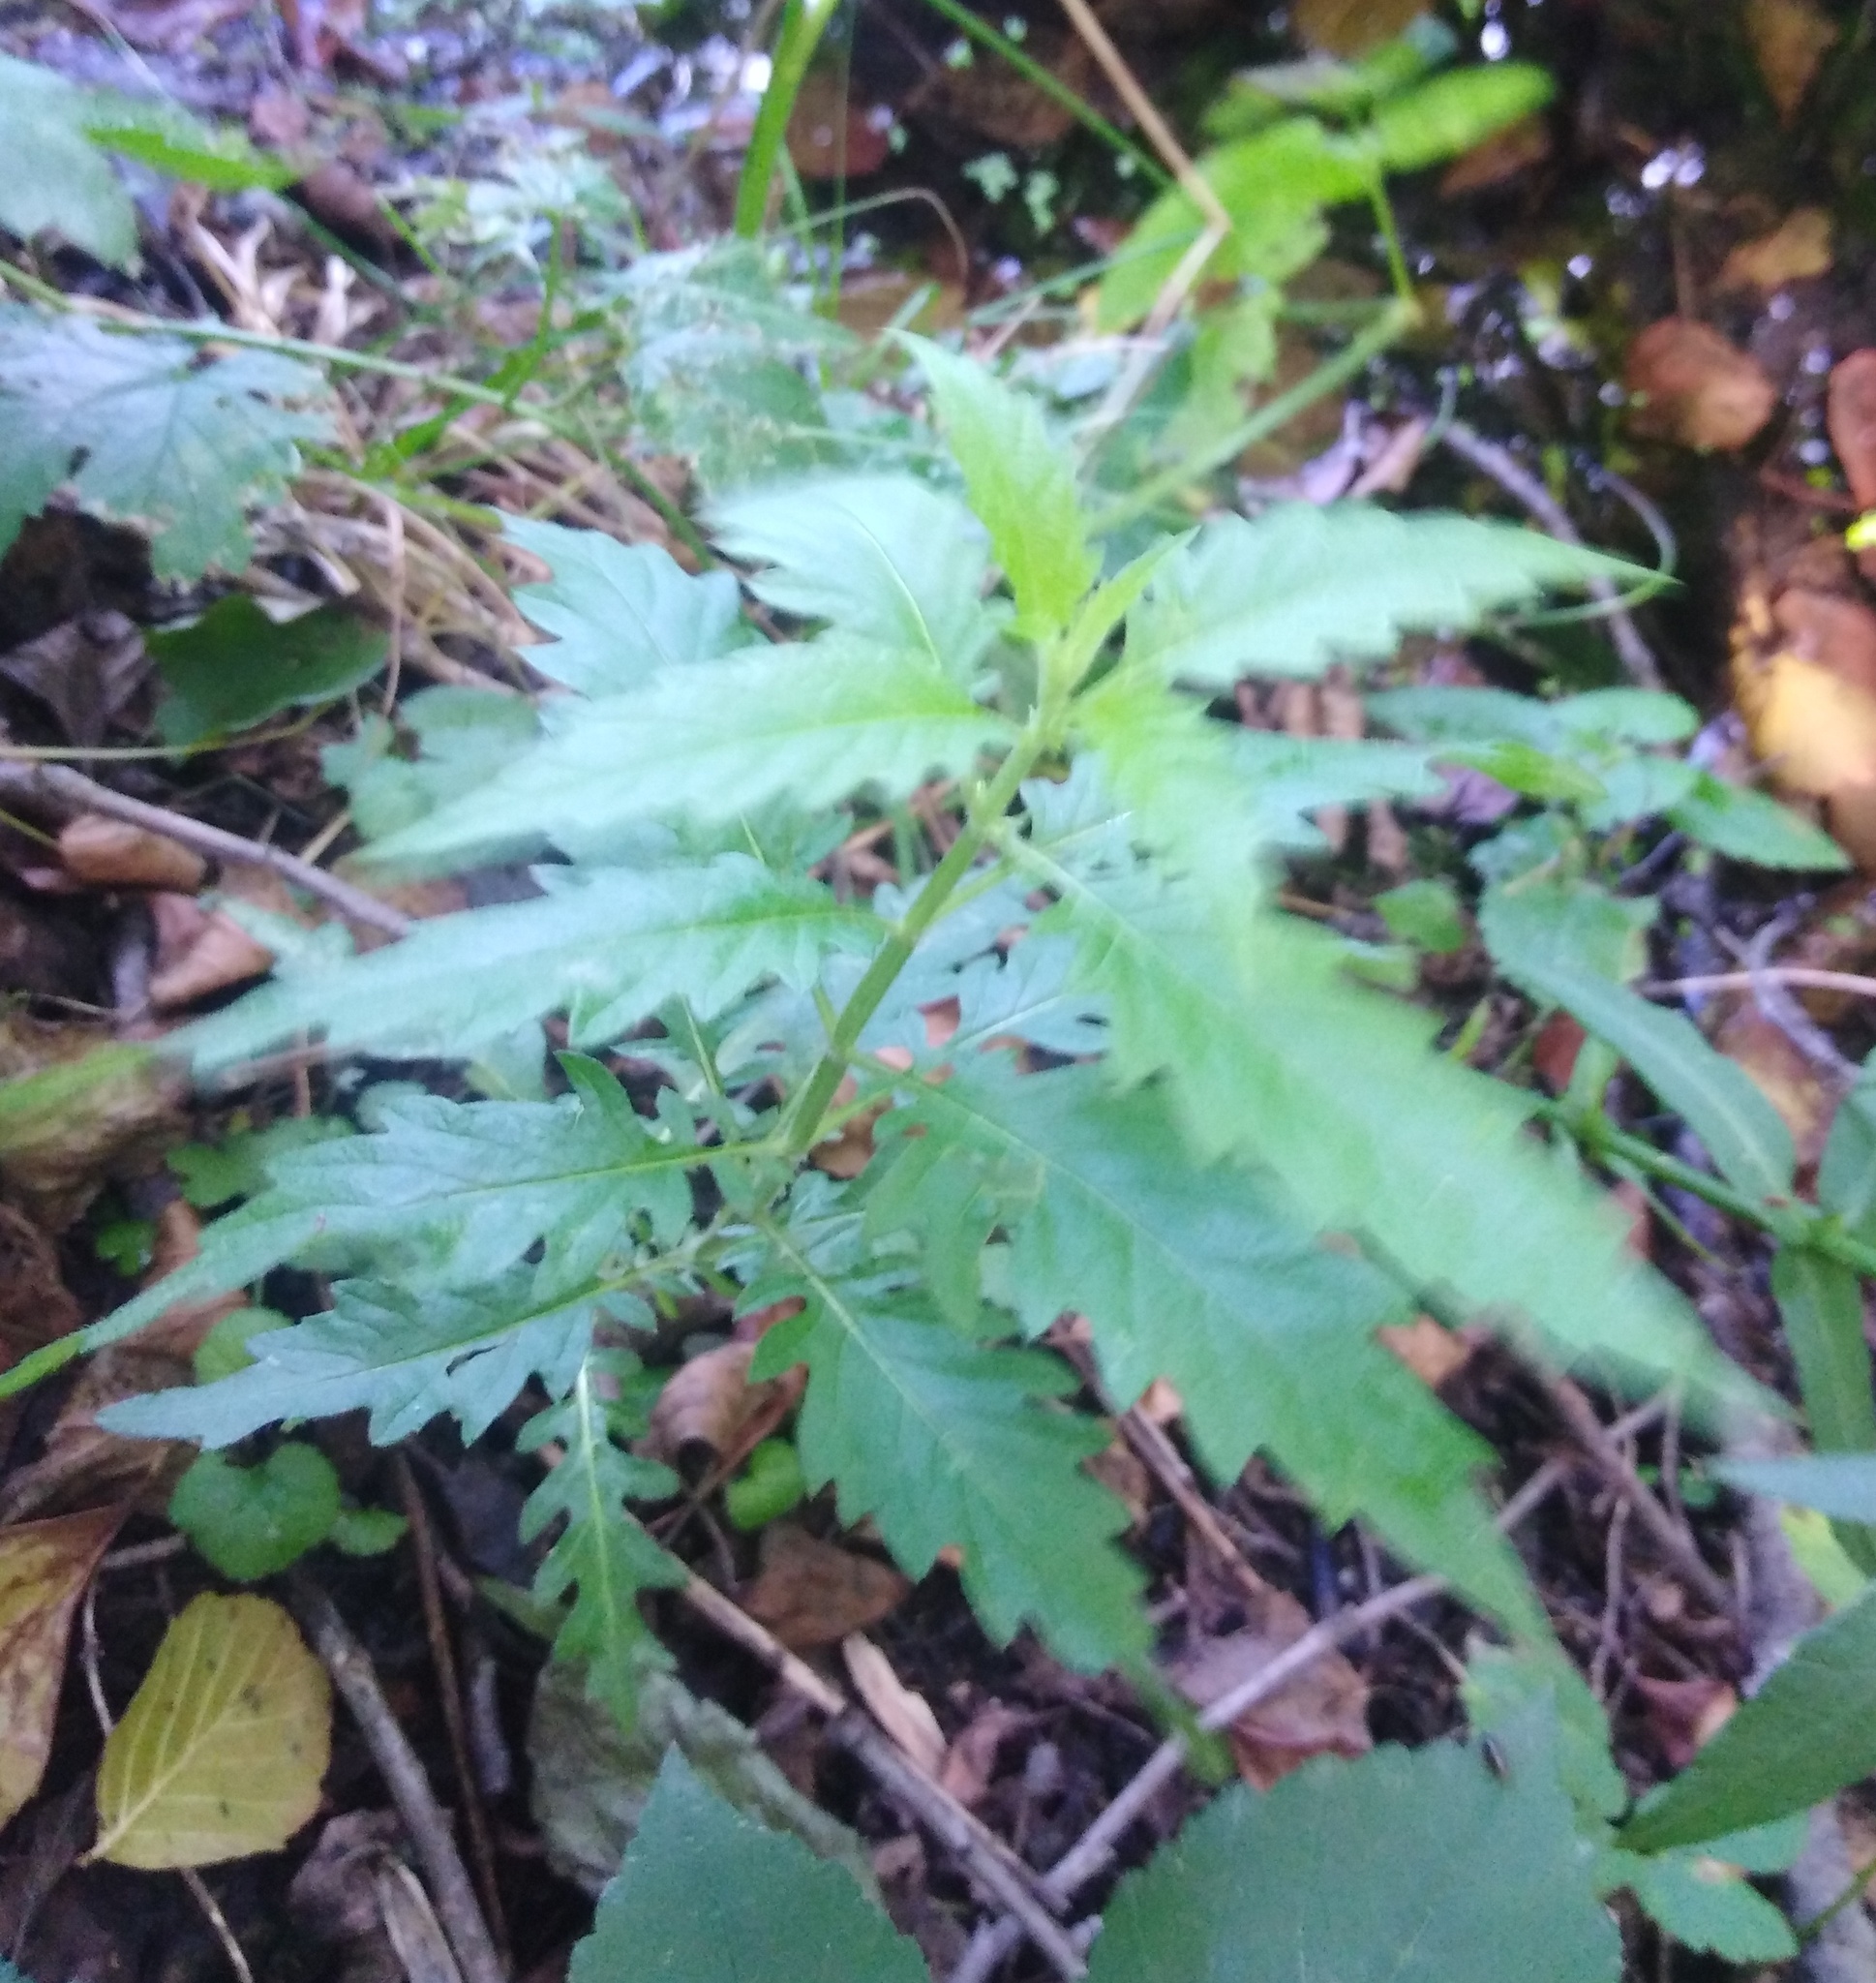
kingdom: Plantae
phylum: Tracheophyta
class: Magnoliopsida
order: Lamiales
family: Lamiaceae
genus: Lycopus
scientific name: Lycopus europaeus
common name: European bugleweed
